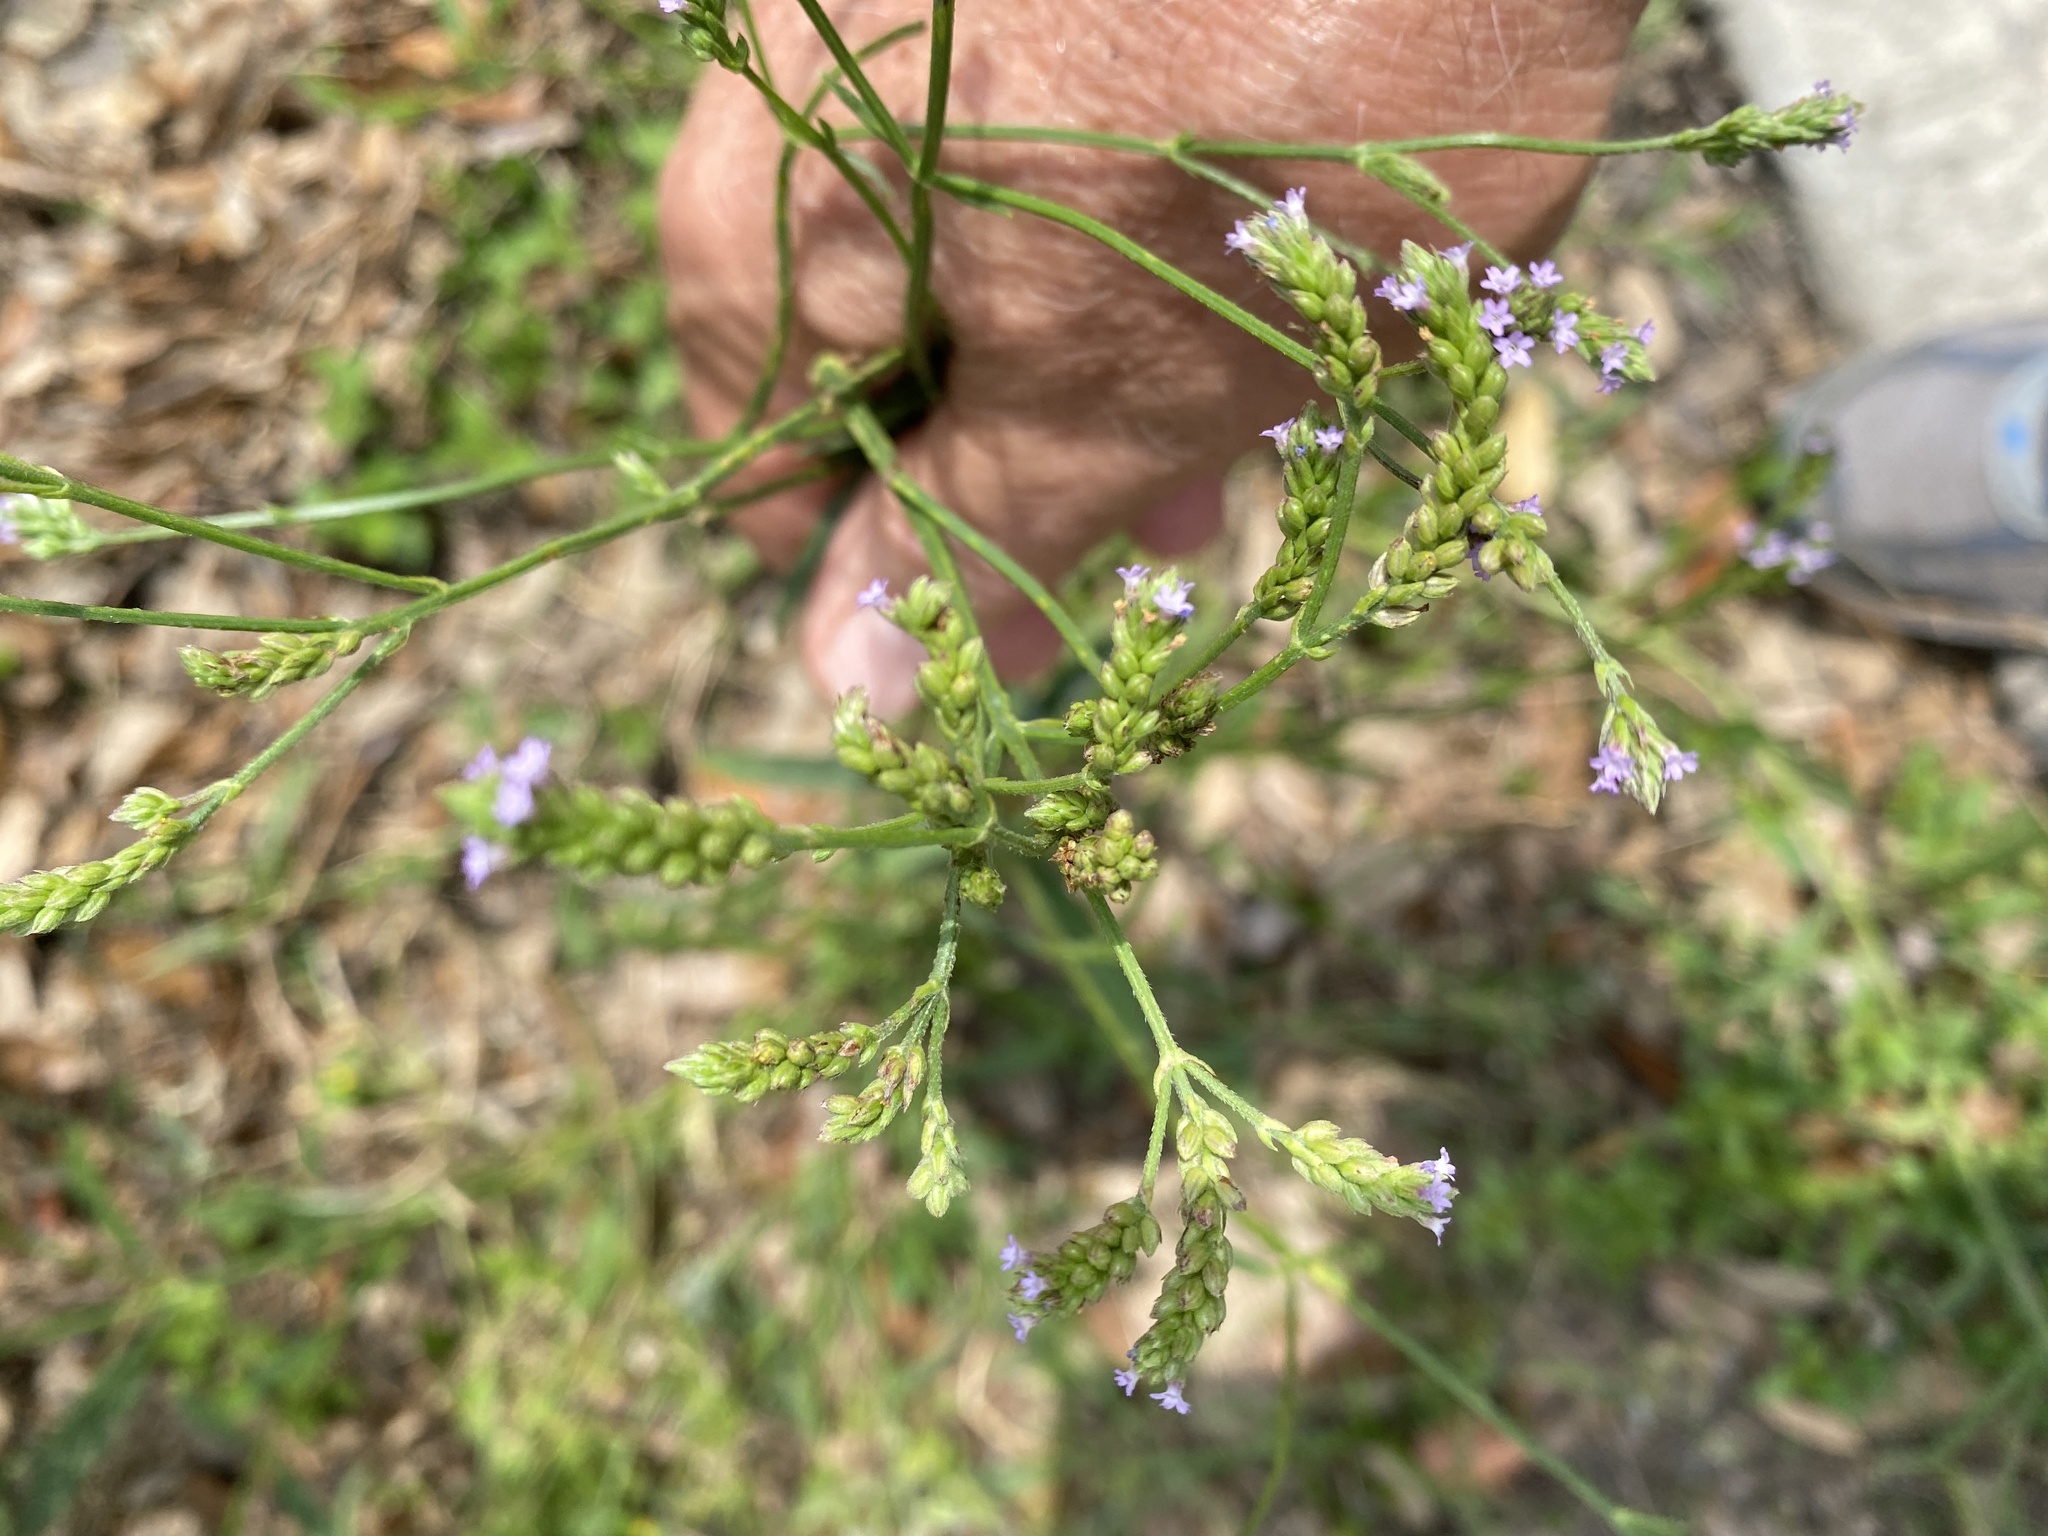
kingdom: Plantae
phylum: Tracheophyta
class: Magnoliopsida
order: Lamiales
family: Verbenaceae
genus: Verbena
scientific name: Verbena brasiliensis
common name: Brazilian vervain
